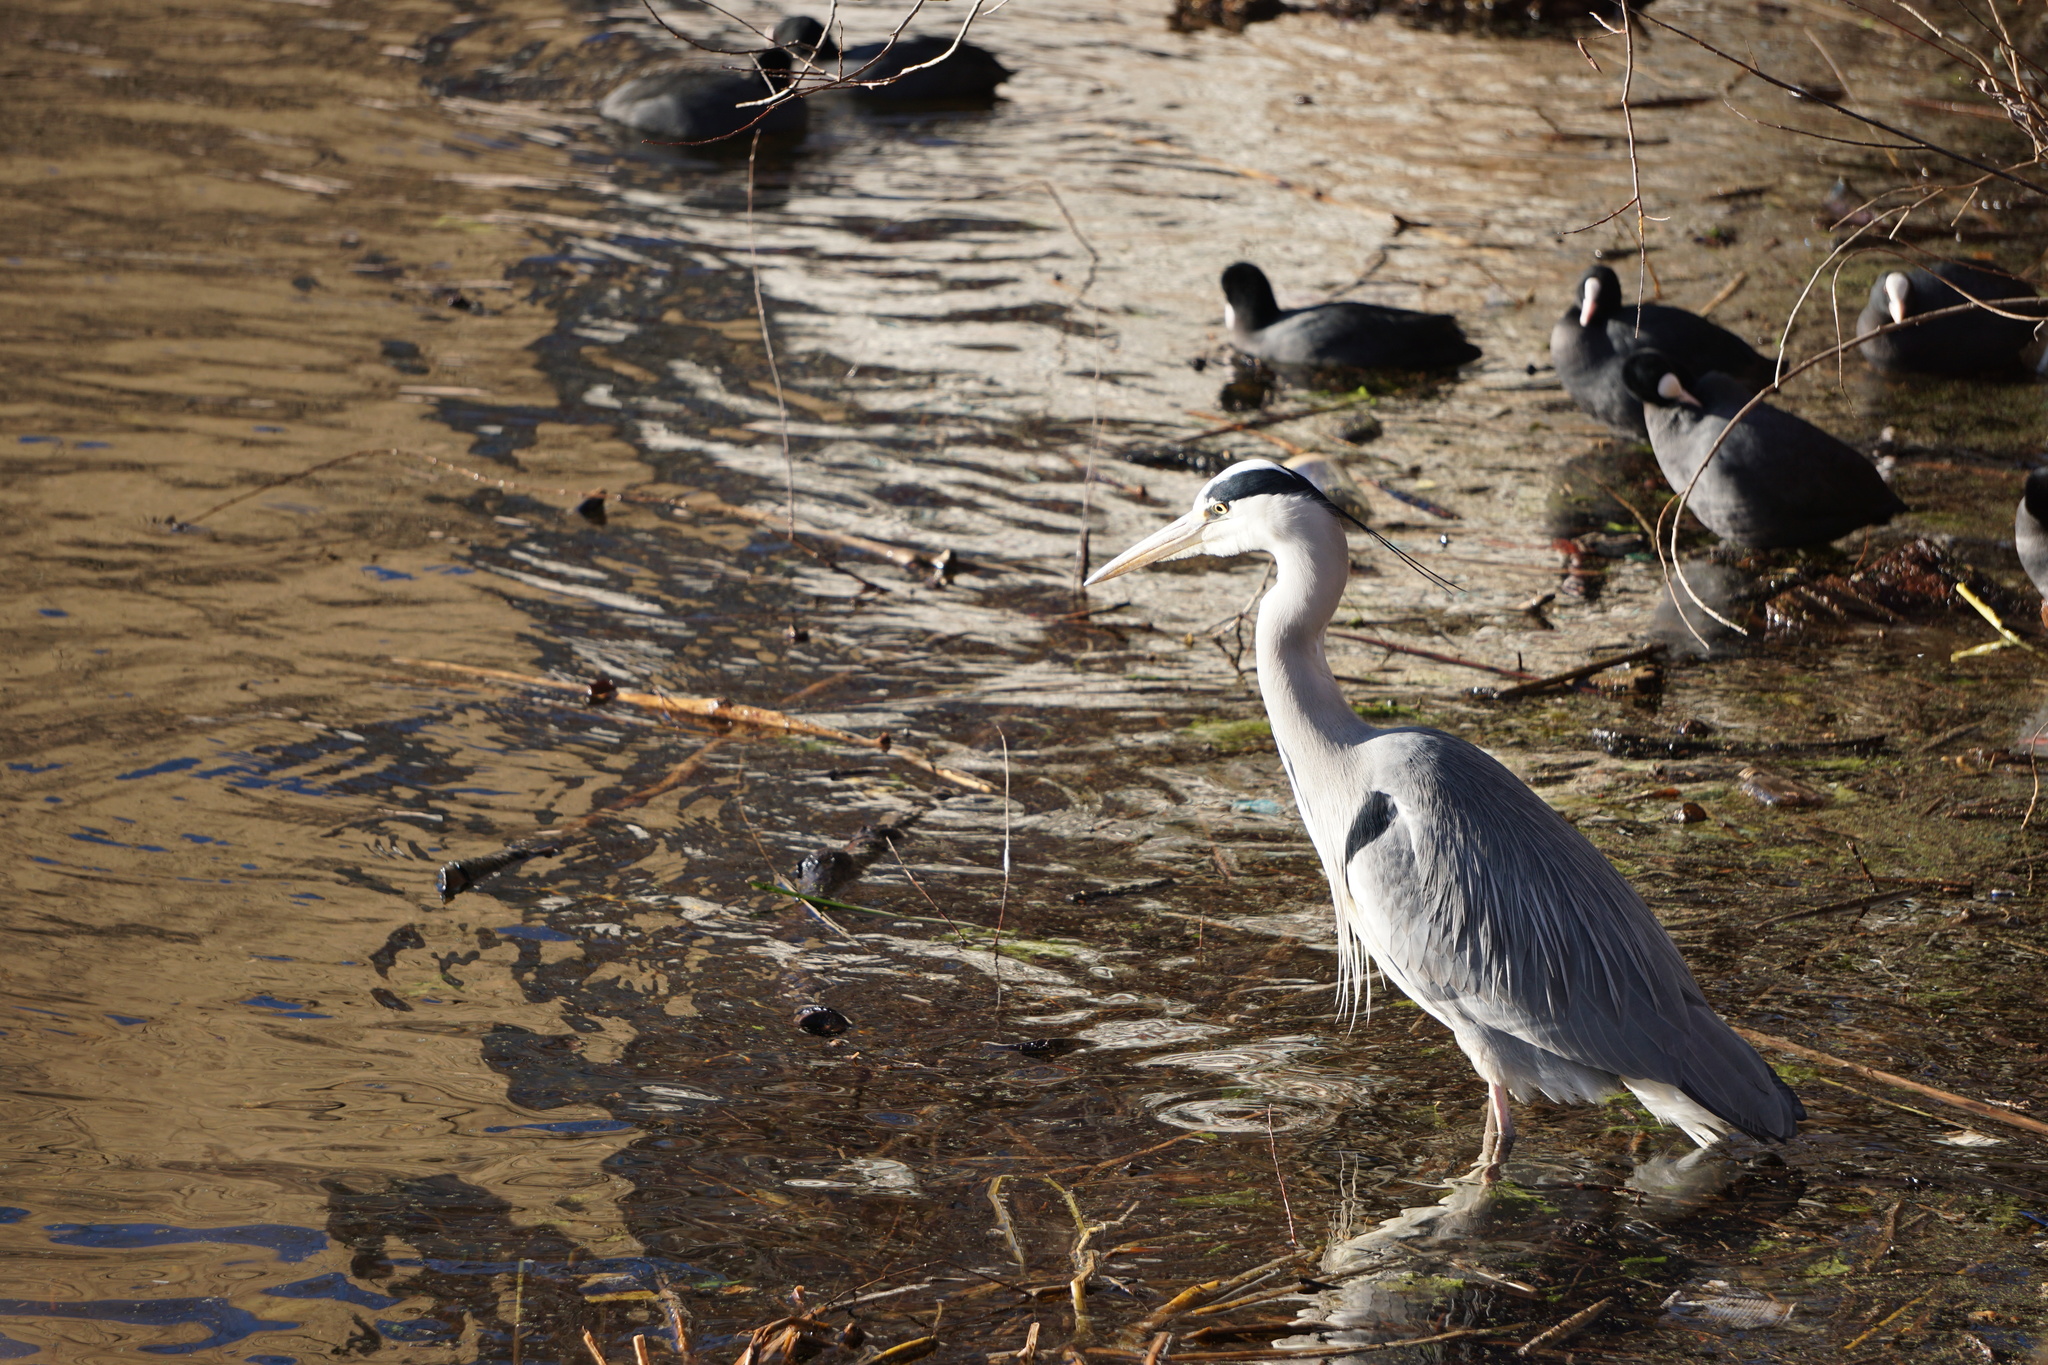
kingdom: Animalia
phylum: Chordata
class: Aves
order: Pelecaniformes
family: Ardeidae
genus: Ardea
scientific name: Ardea cinerea
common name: Grey heron
